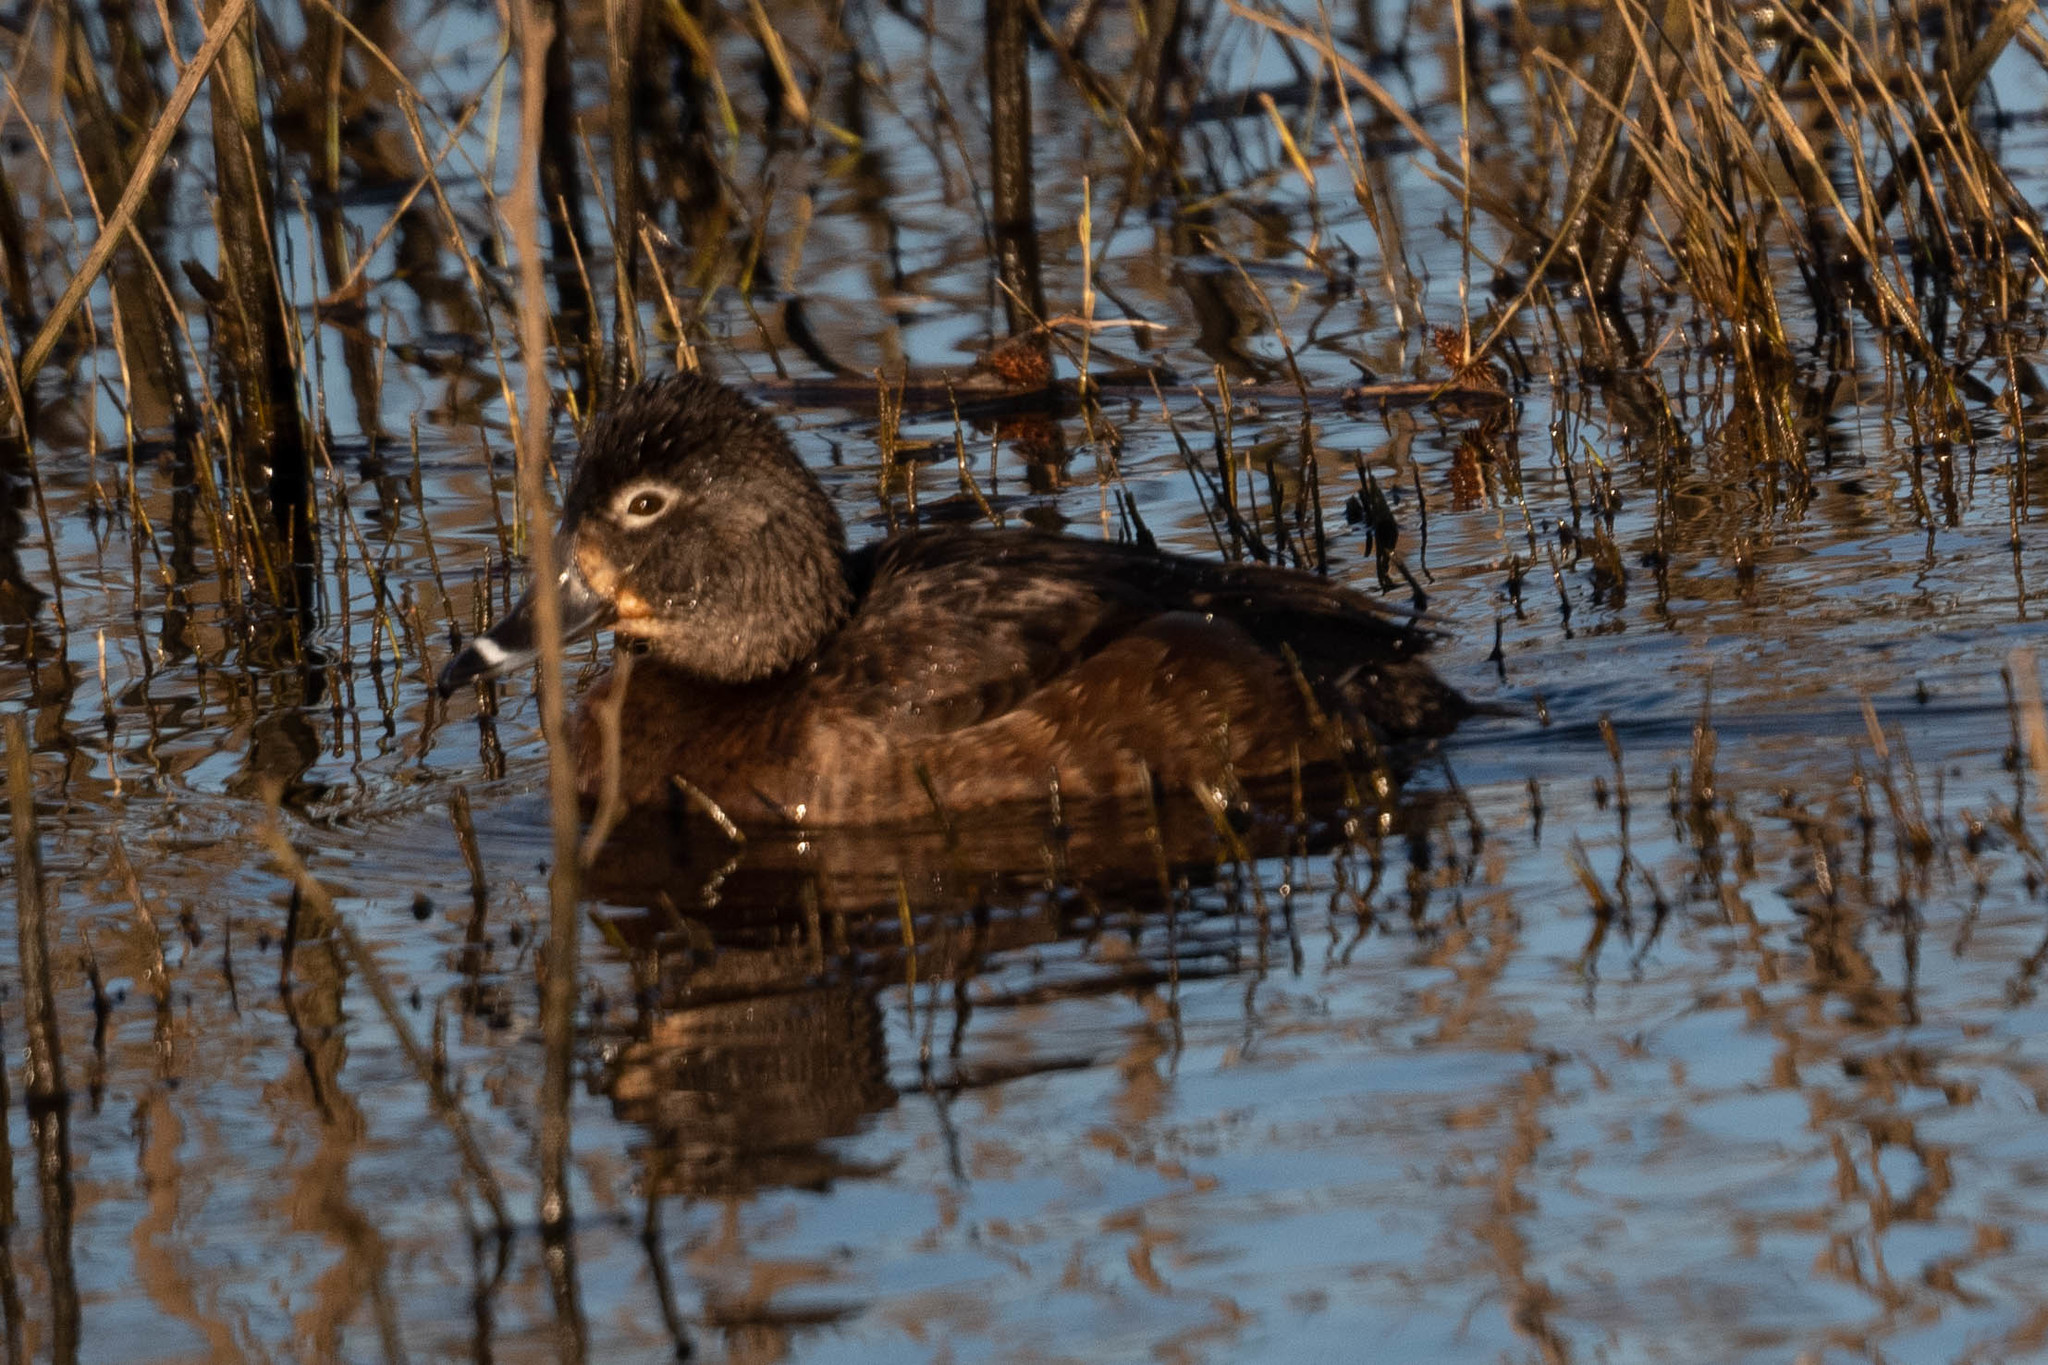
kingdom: Animalia
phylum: Chordata
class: Aves
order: Anseriformes
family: Anatidae
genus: Aythya
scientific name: Aythya collaris
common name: Ring-necked duck
